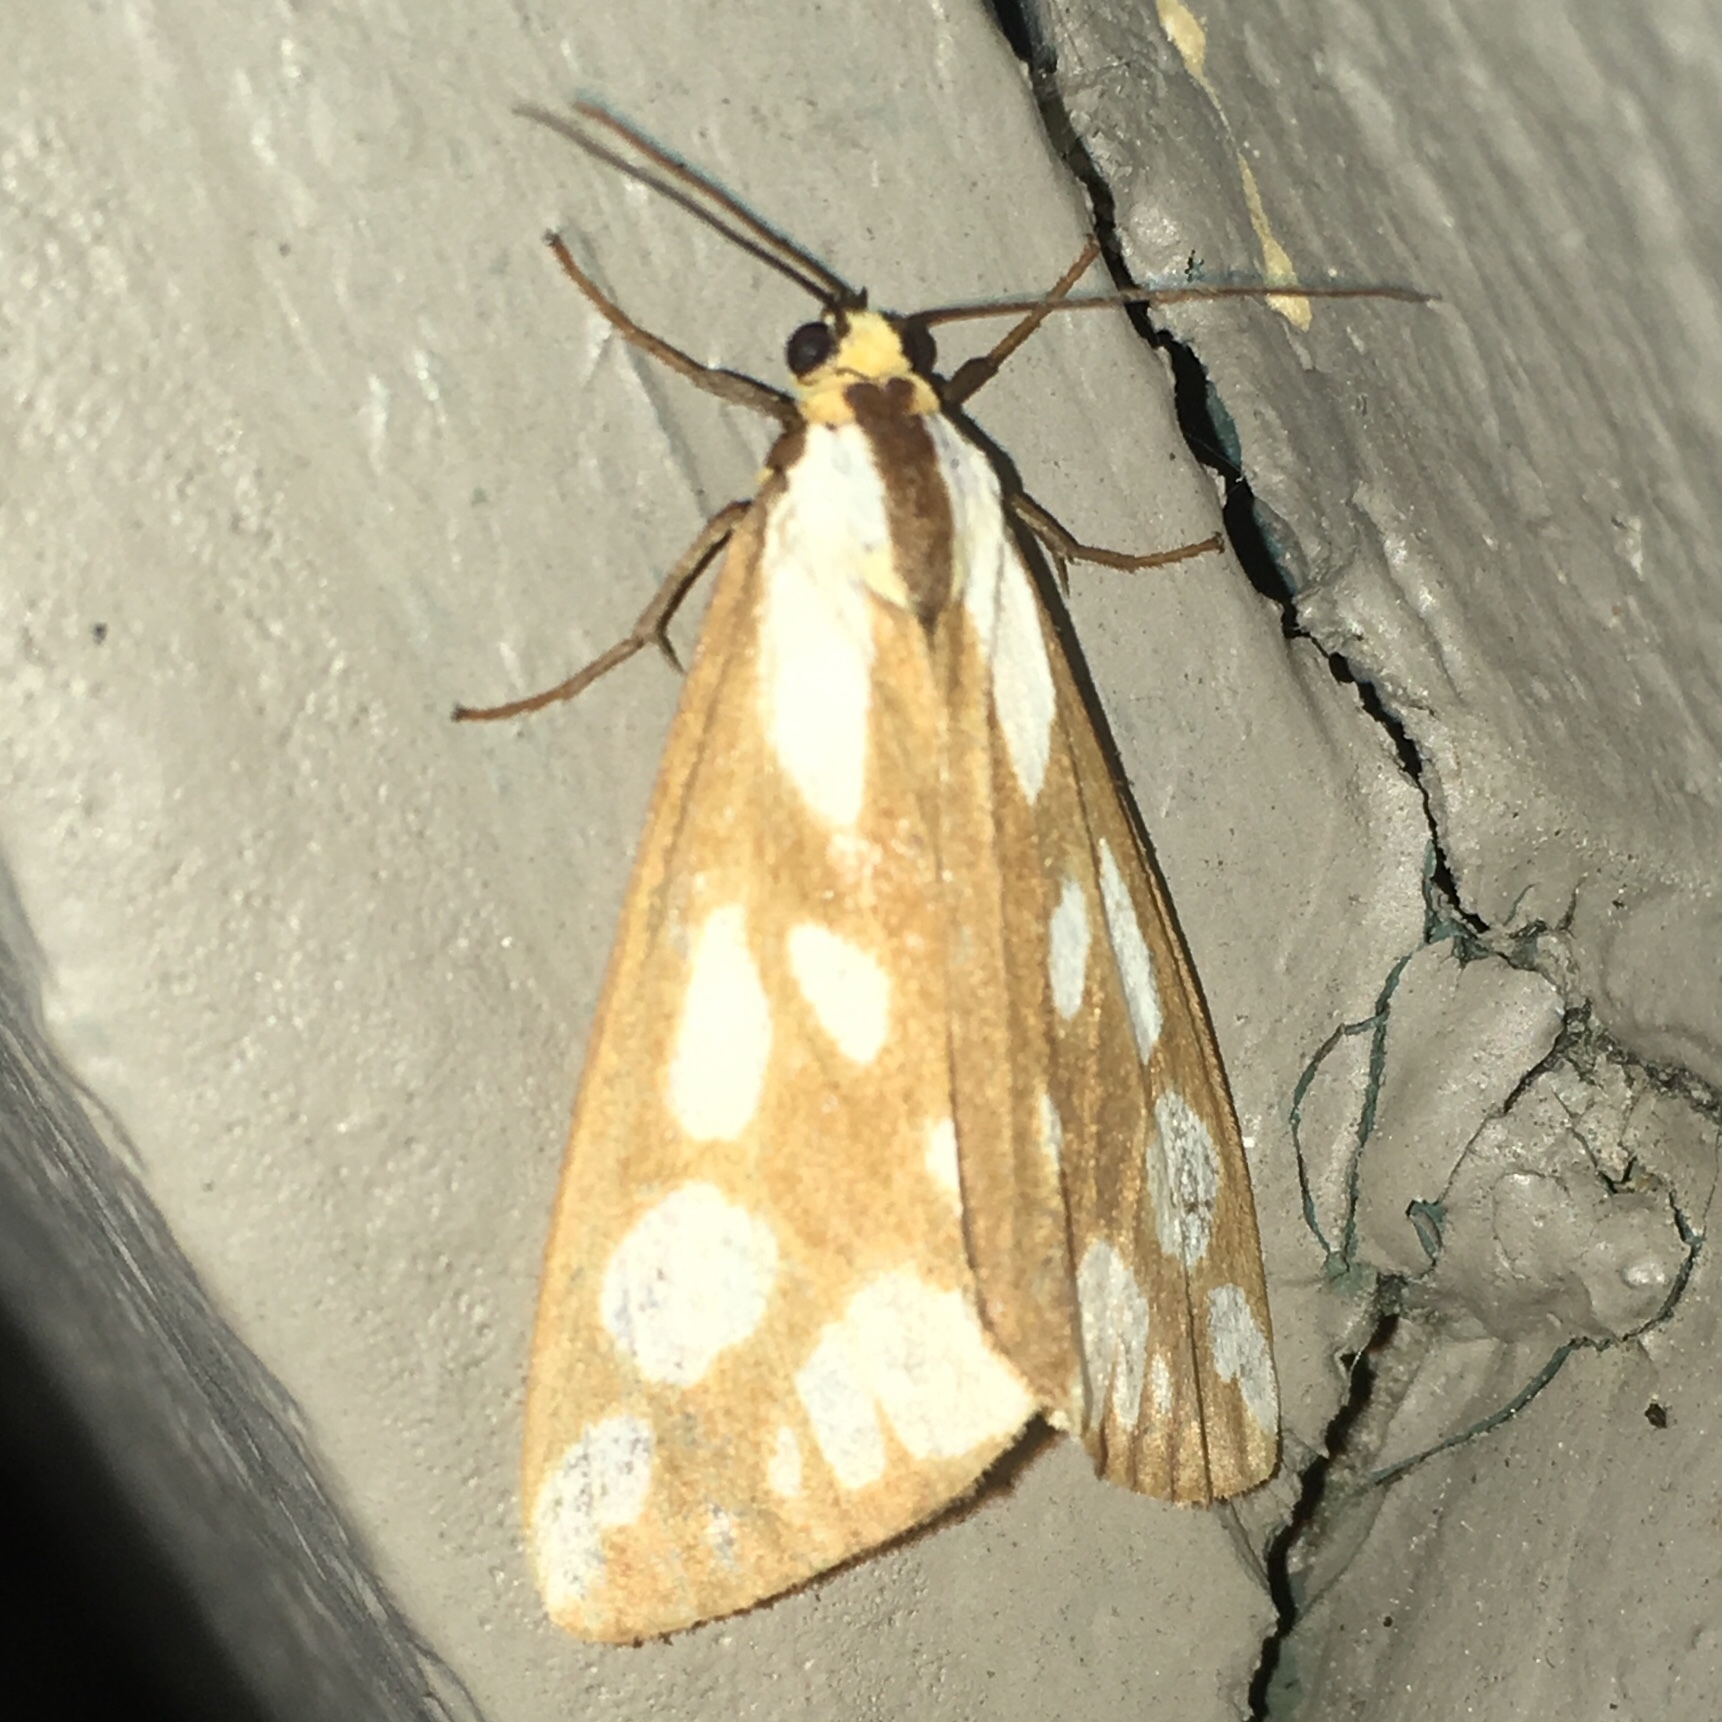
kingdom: Animalia
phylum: Arthropoda
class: Insecta
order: Lepidoptera
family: Erebidae
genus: Haploa
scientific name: Haploa confusa
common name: Confused haploa moth
